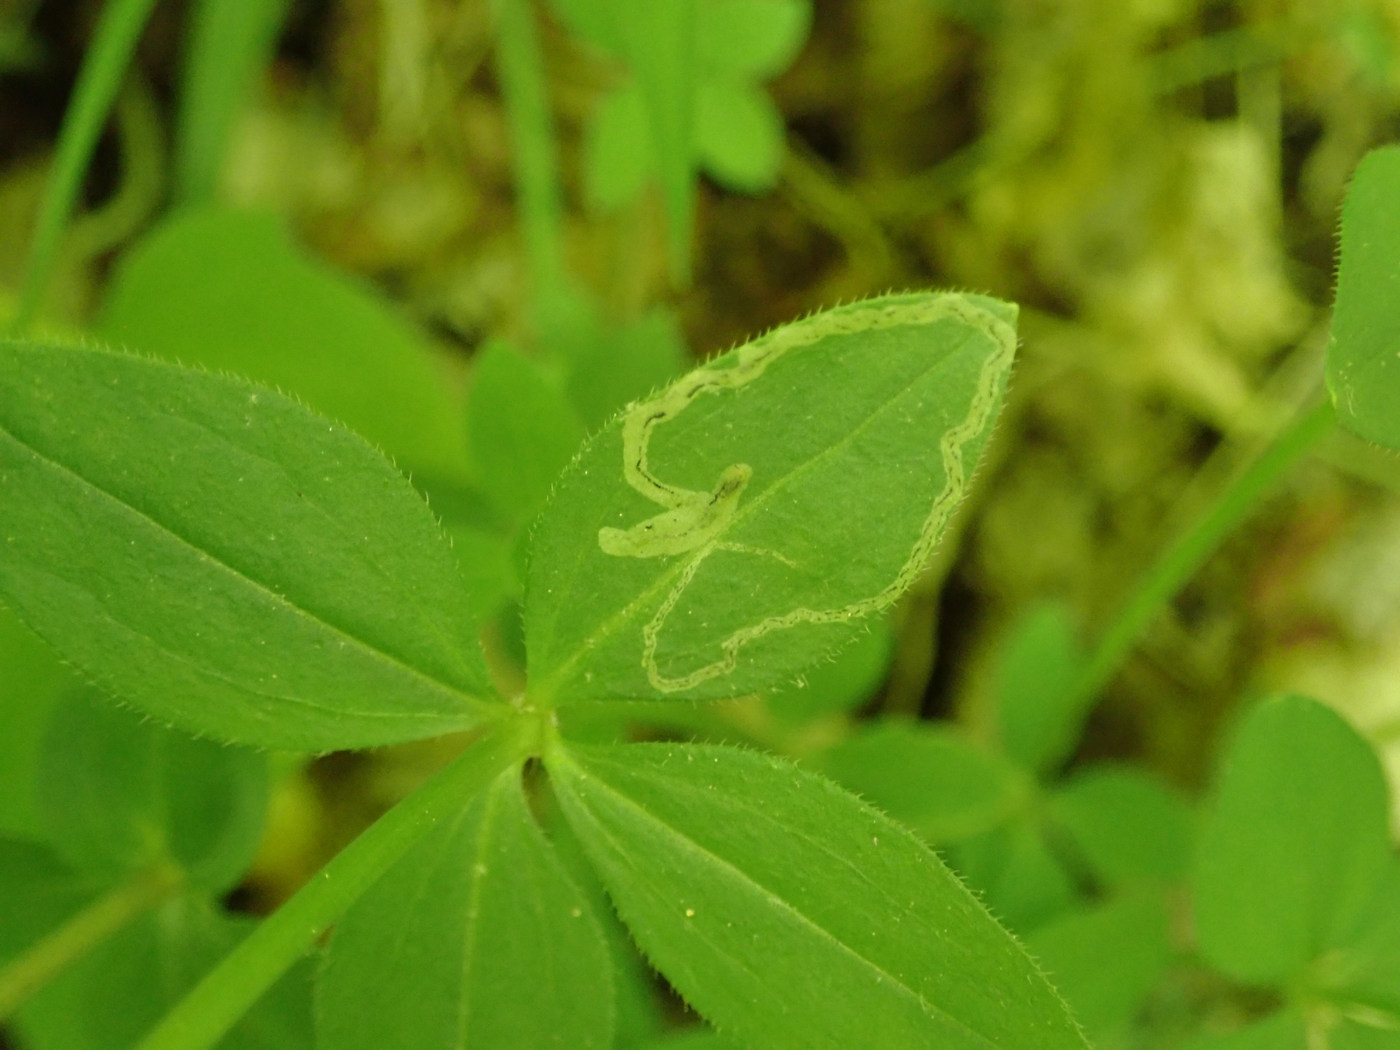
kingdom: Animalia
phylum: Arthropoda
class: Insecta
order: Diptera
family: Agromyzidae
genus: Liriomyza
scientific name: Liriomyza galiivora
